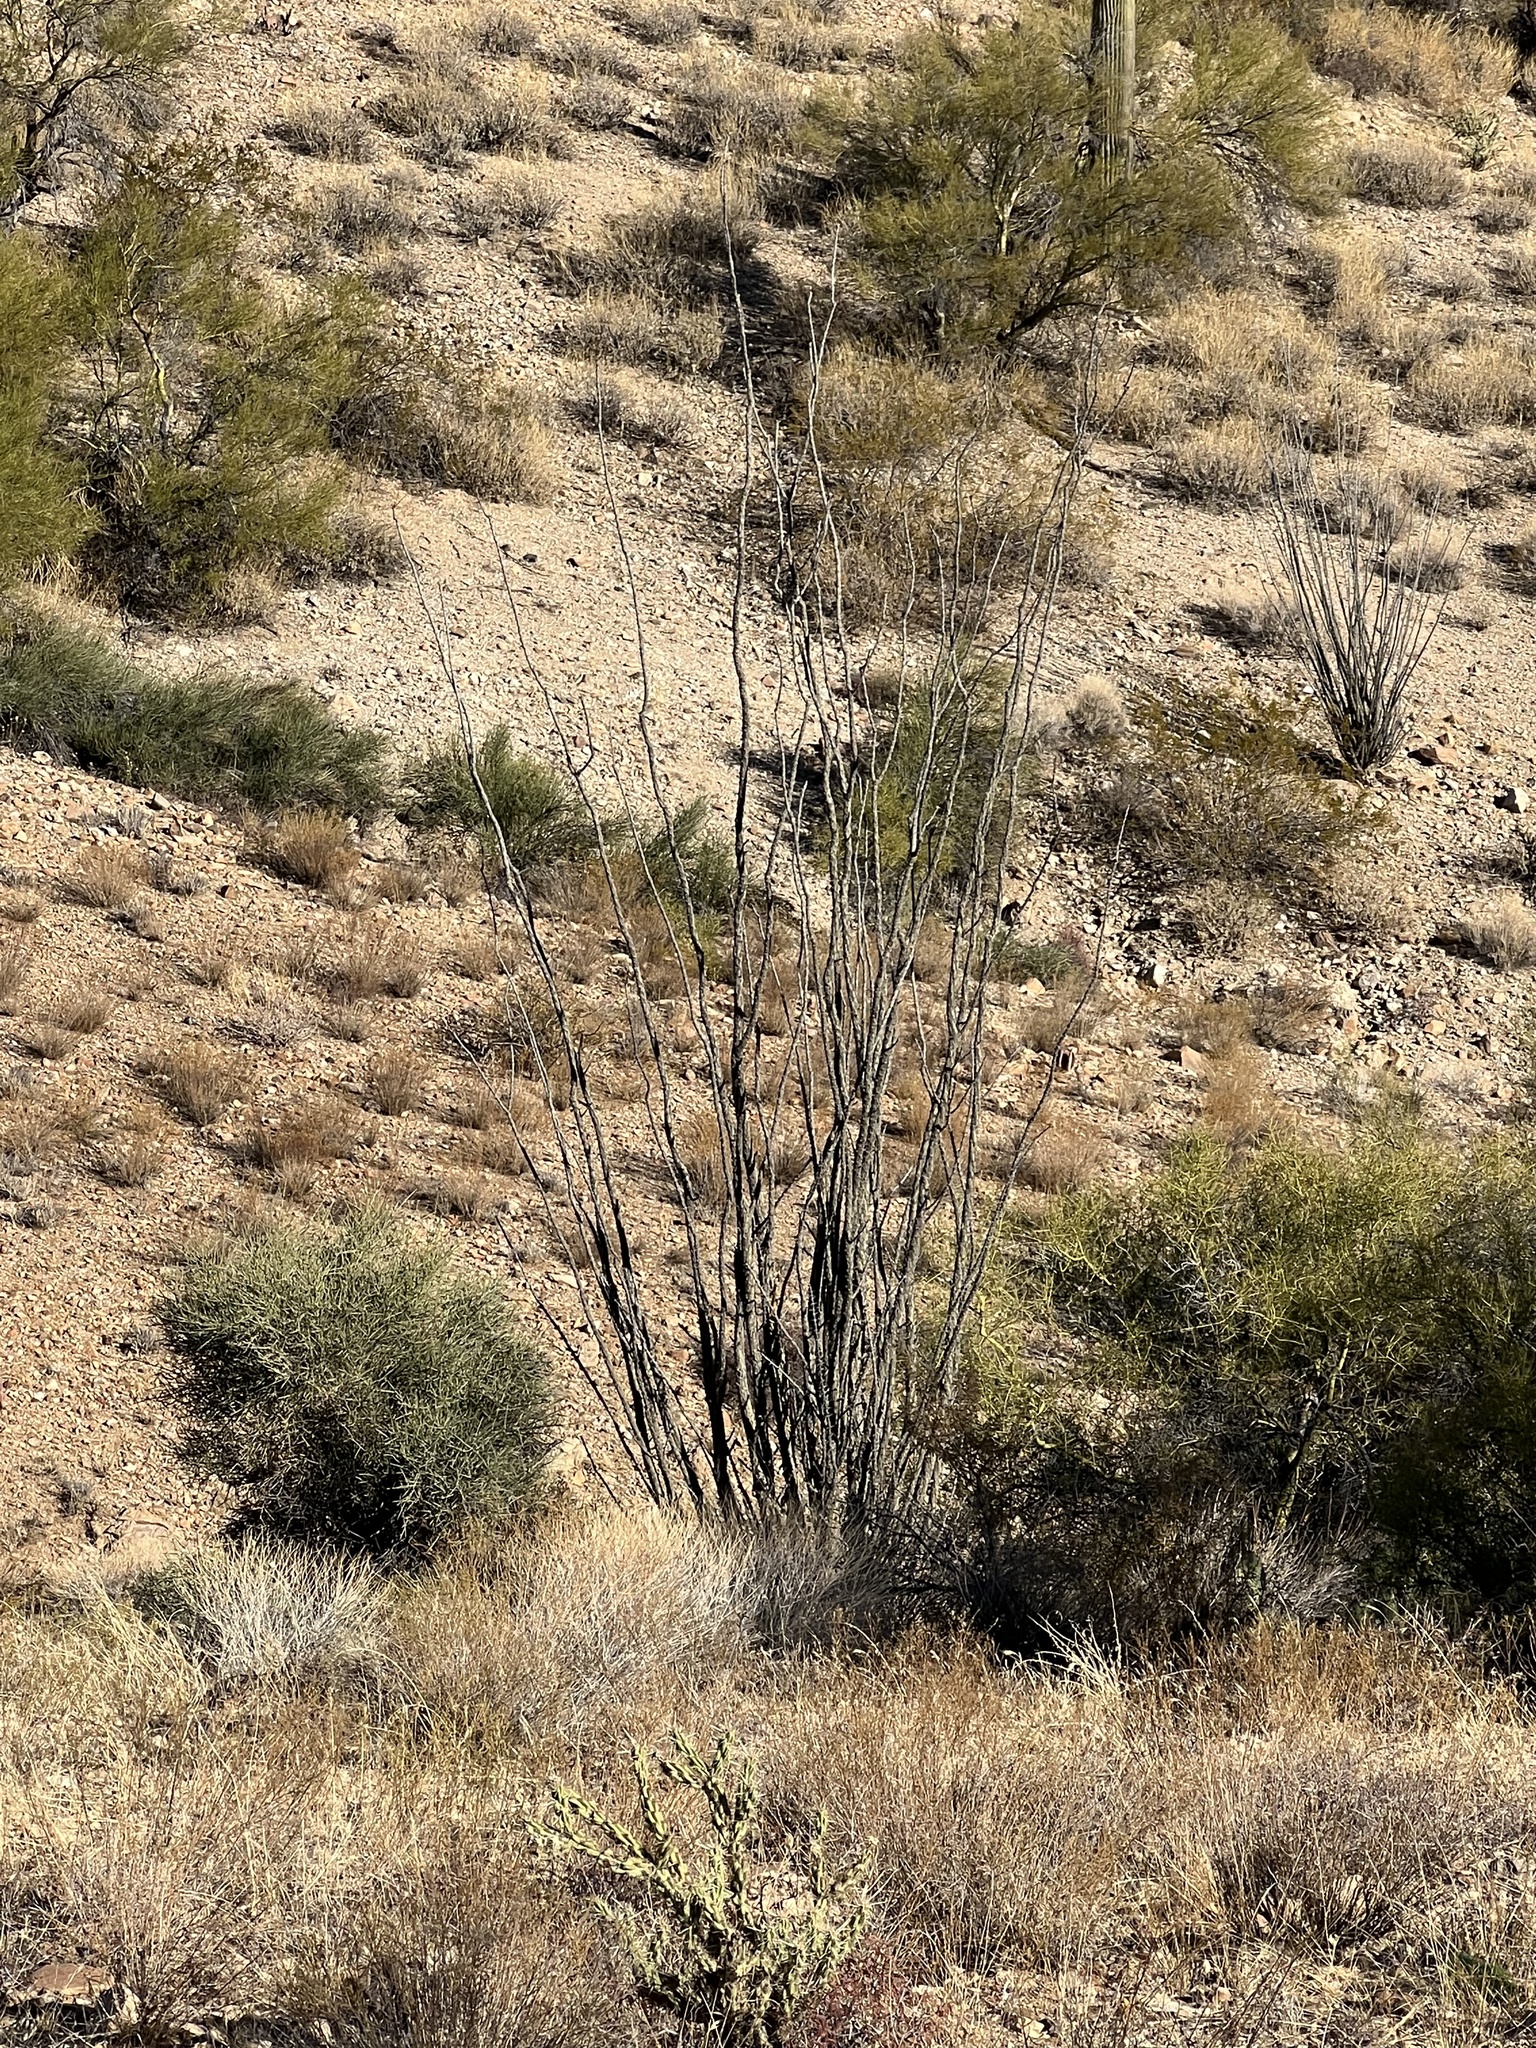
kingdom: Plantae
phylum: Tracheophyta
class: Magnoliopsida
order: Ericales
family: Fouquieriaceae
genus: Fouquieria
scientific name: Fouquieria splendens
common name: Vine-cactus
